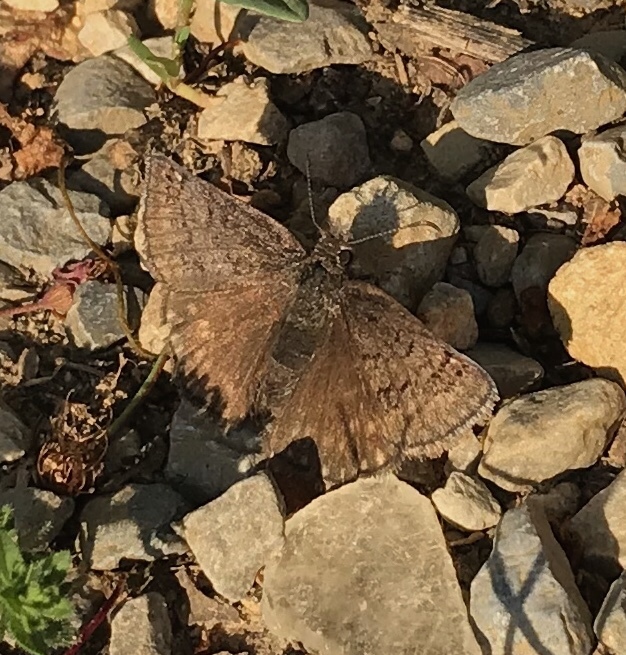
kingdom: Animalia
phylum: Arthropoda
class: Insecta
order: Lepidoptera
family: Hesperiidae
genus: Erynnis
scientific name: Erynnis brizo
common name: Sleepy duskywing
